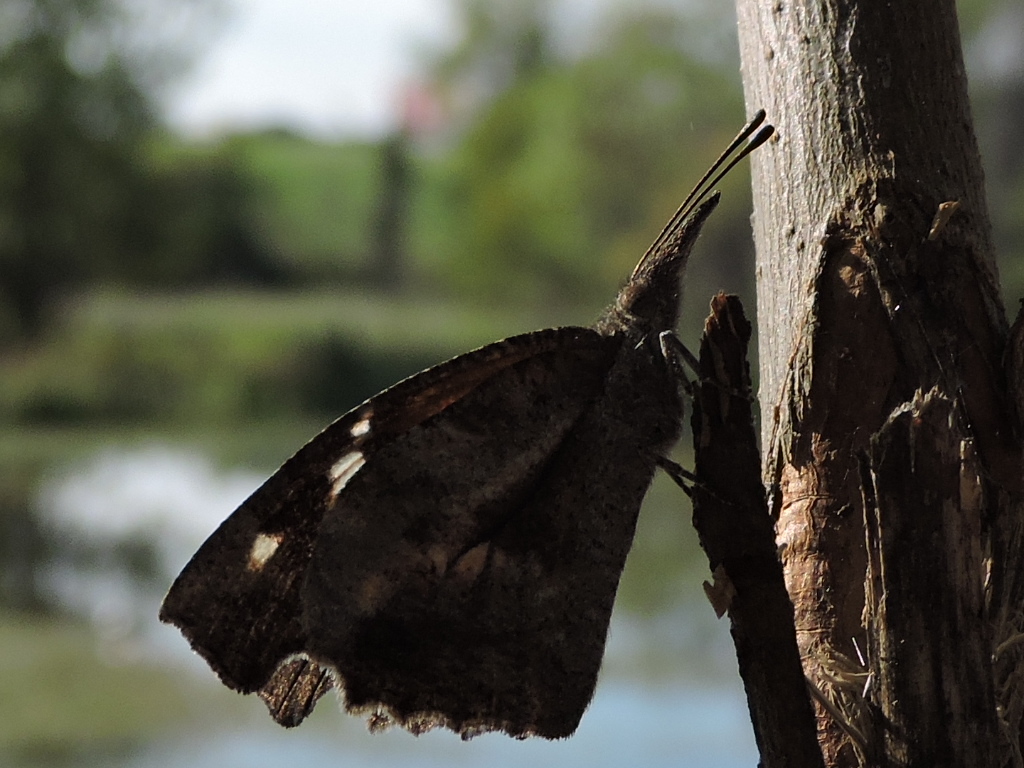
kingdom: Animalia
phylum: Arthropoda
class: Insecta
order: Lepidoptera
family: Nymphalidae
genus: Libytheana
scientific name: Libytheana carinenta
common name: American snout
